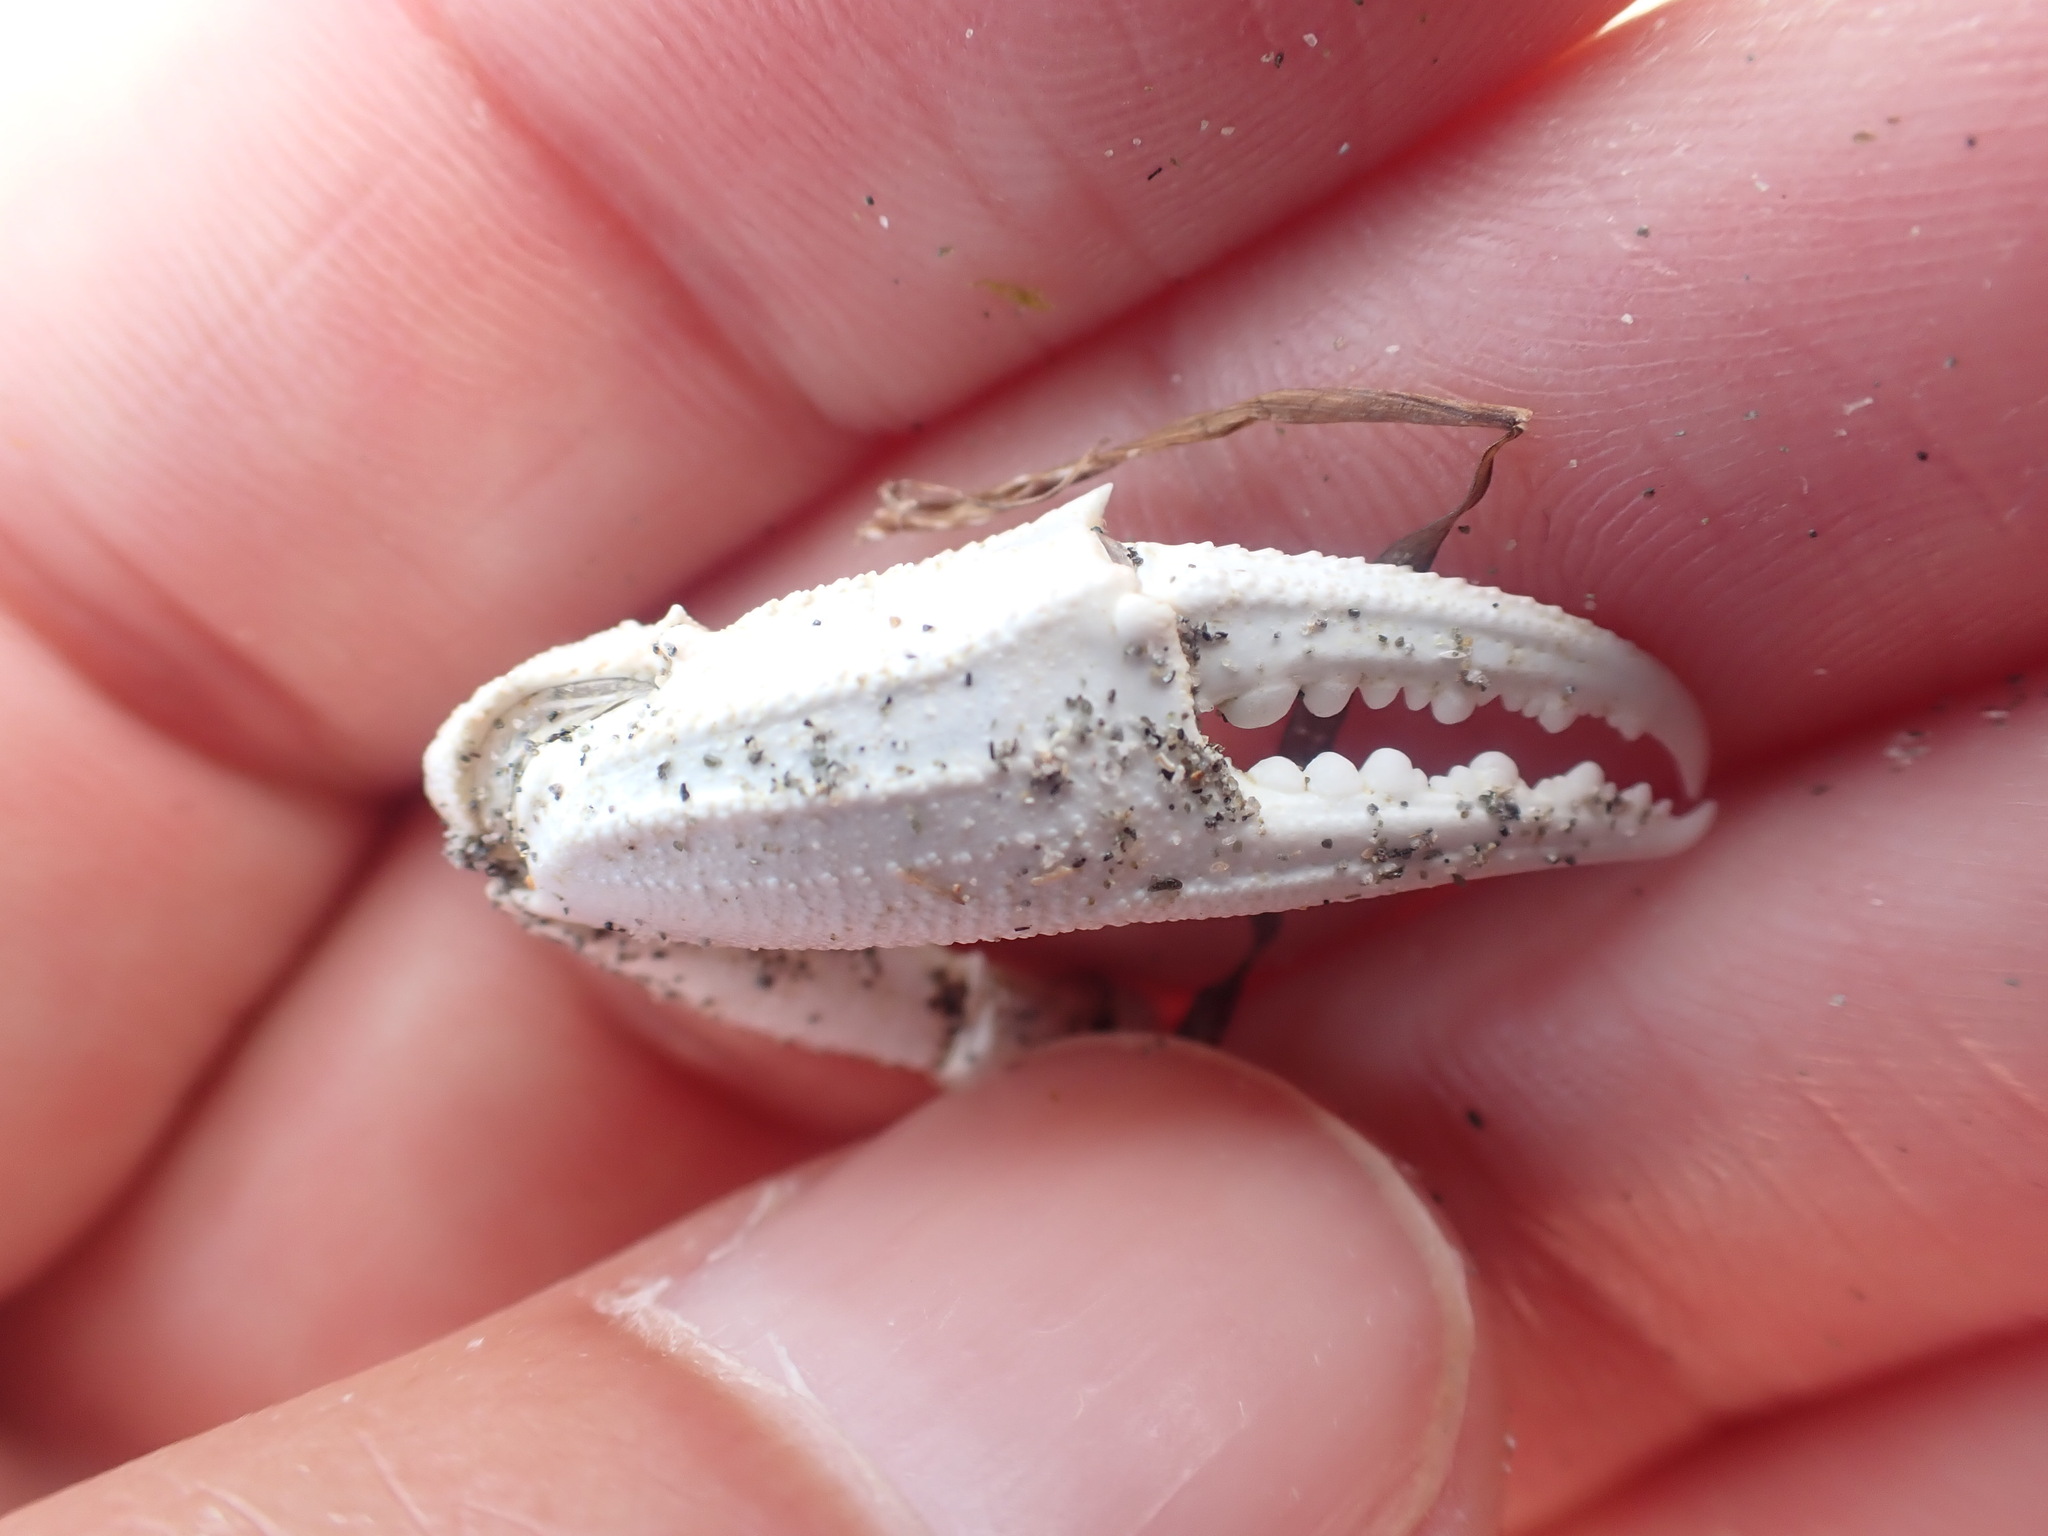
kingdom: Animalia
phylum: Arthropoda
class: Malacostraca
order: Decapoda
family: Ovalipidae
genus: Ovalipes
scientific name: Ovalipes catharus
